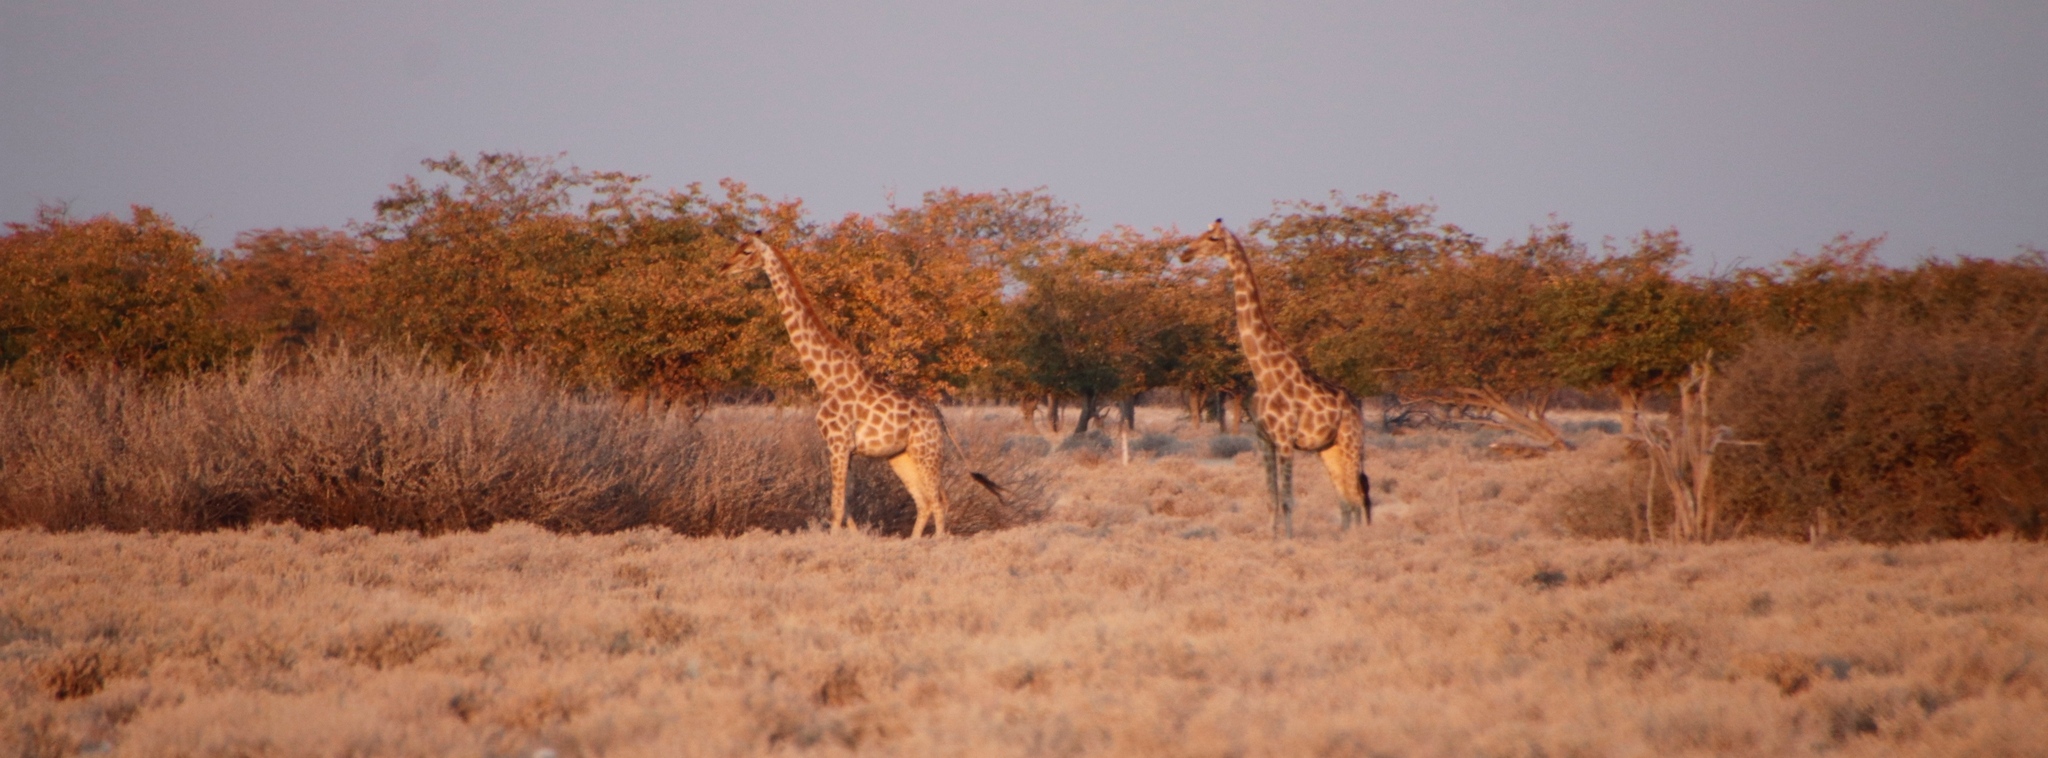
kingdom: Animalia
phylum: Chordata
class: Mammalia
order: Artiodactyla
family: Giraffidae
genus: Giraffa
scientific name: Giraffa giraffa
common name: Southern giraffe
